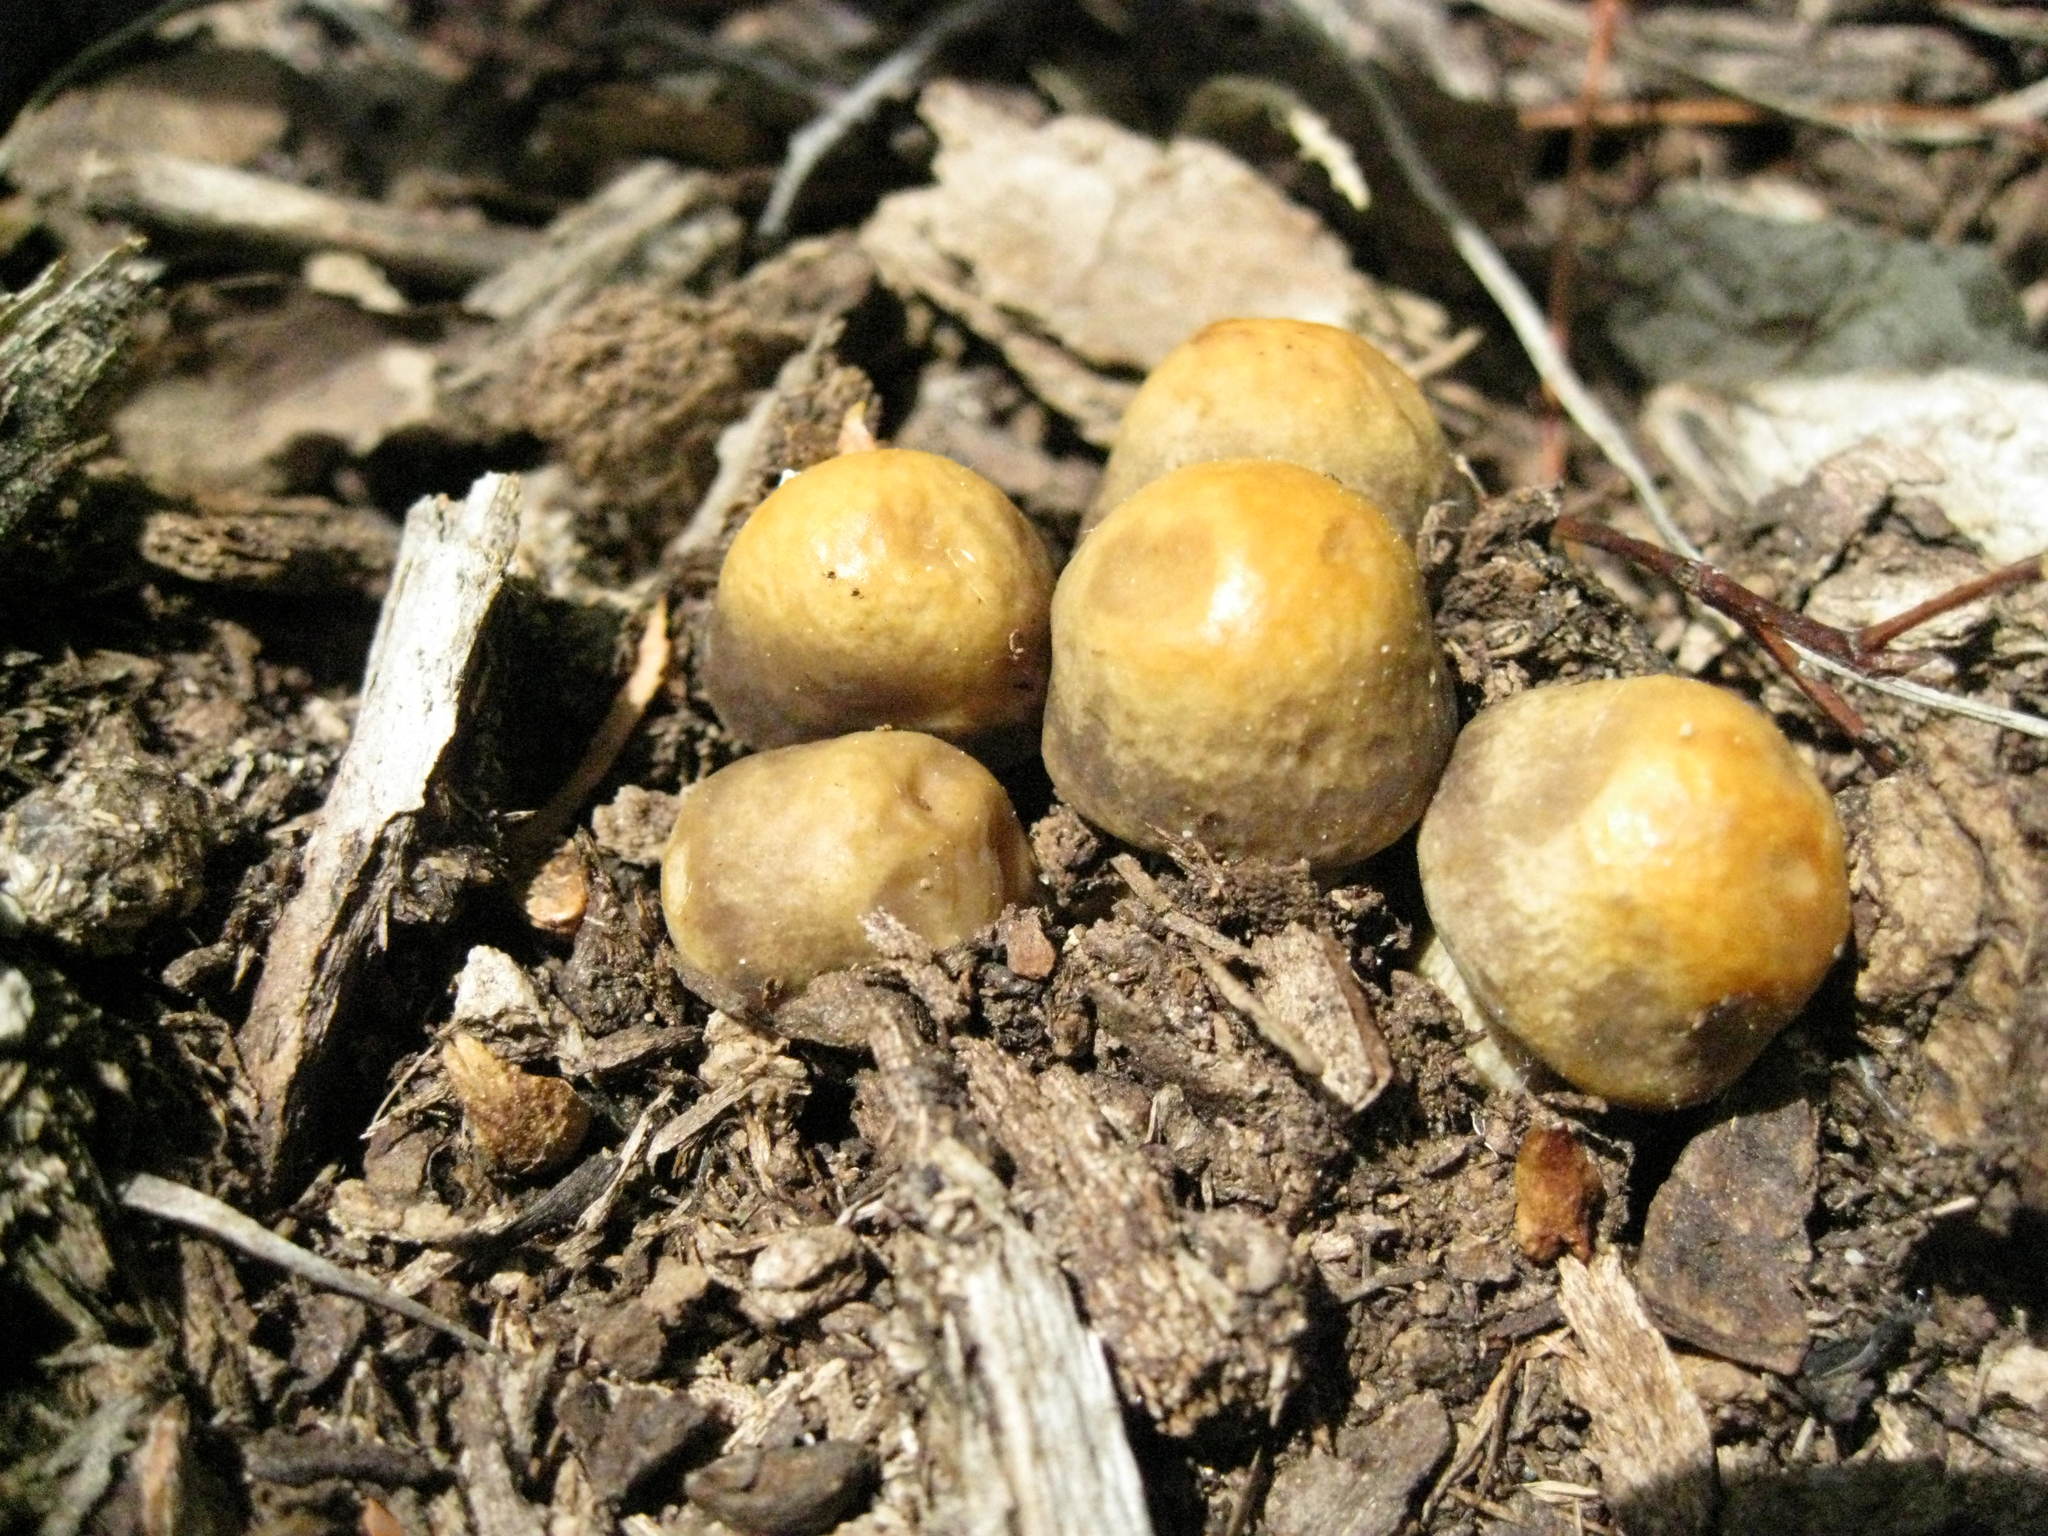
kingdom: Fungi
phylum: Basidiomycota
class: Agaricomycetes
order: Agaricales
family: Strophariaceae
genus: Agrocybe
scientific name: Agrocybe praecox
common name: Spring fieldcap
